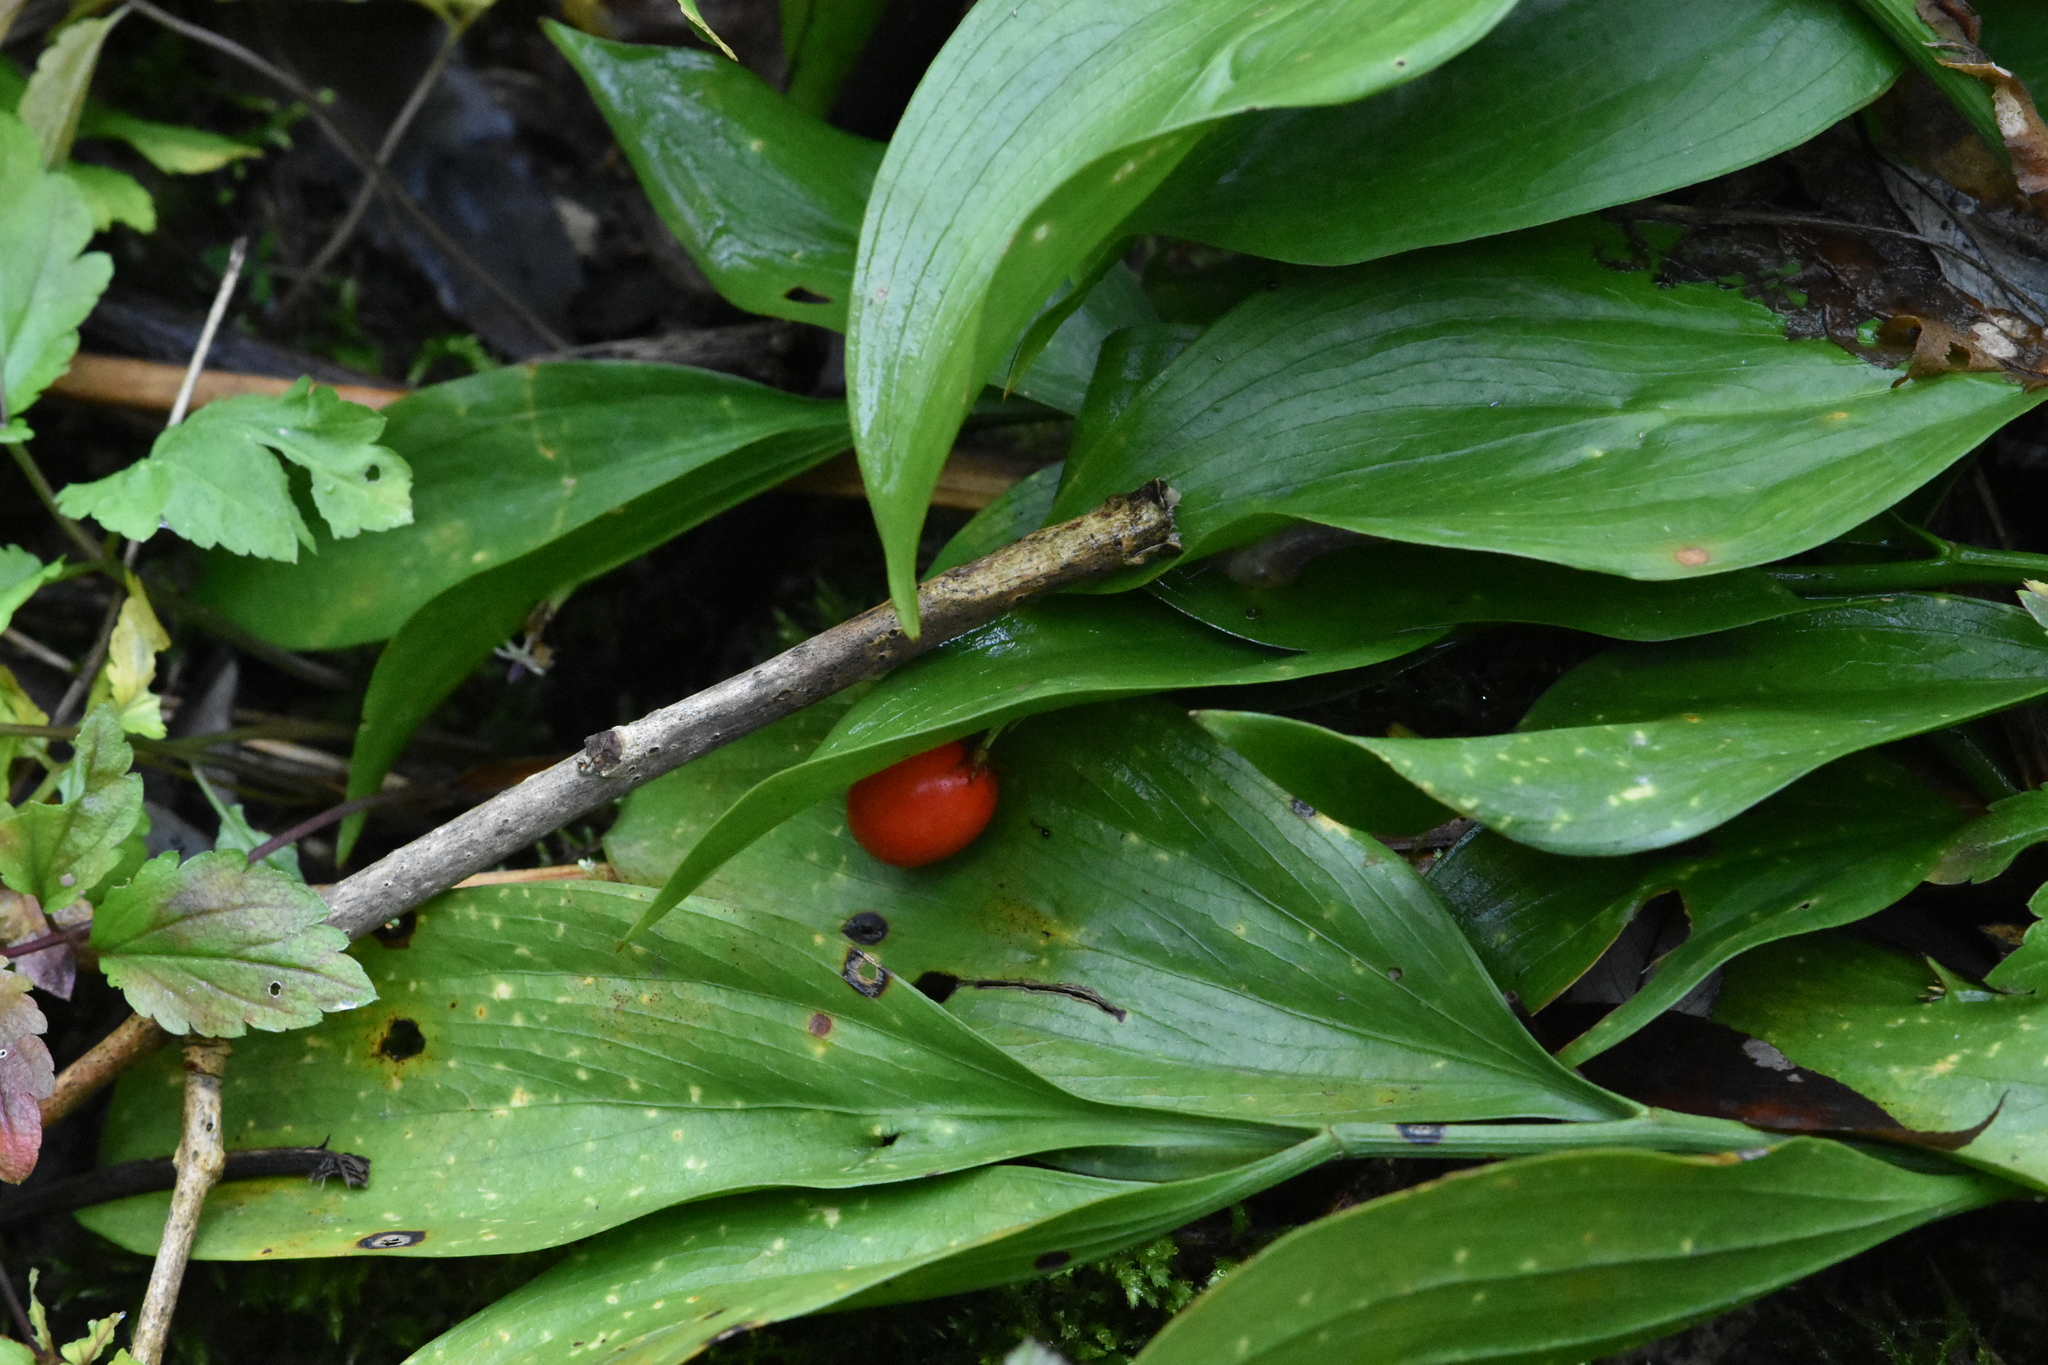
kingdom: Plantae
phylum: Tracheophyta
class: Liliopsida
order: Asparagales
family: Asparagaceae
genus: Ruscus
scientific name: Ruscus colchicus
